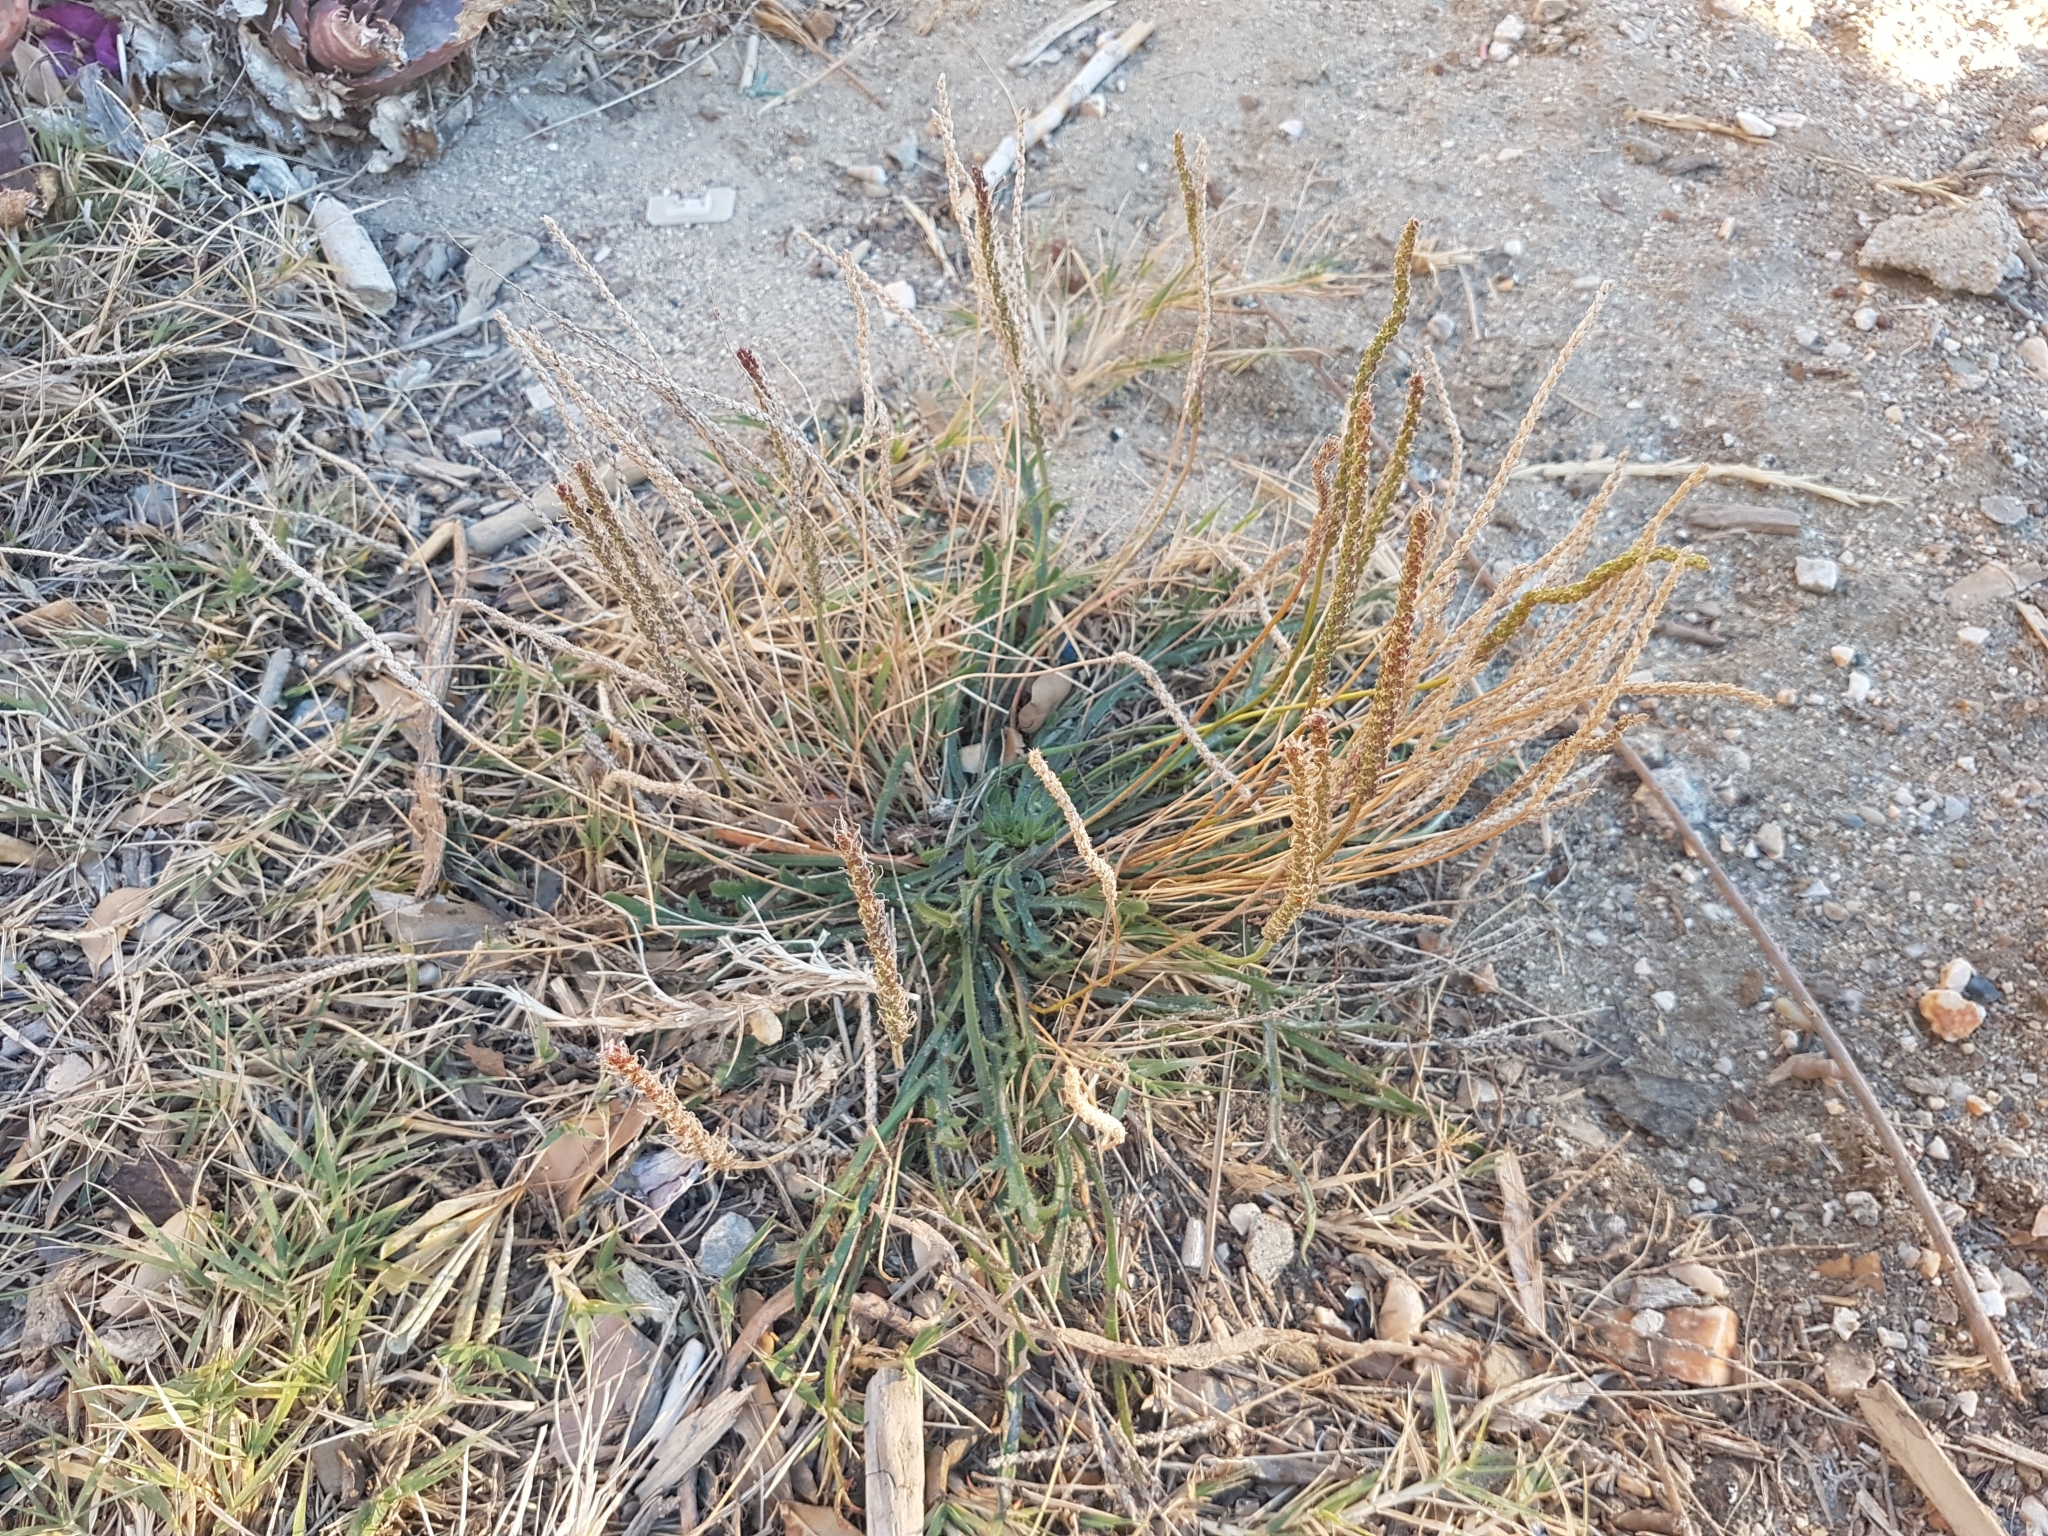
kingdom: Plantae
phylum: Tracheophyta
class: Magnoliopsida
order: Lamiales
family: Plantaginaceae
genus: Plantago
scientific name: Plantago coronopus
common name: Buck's-horn plantain
